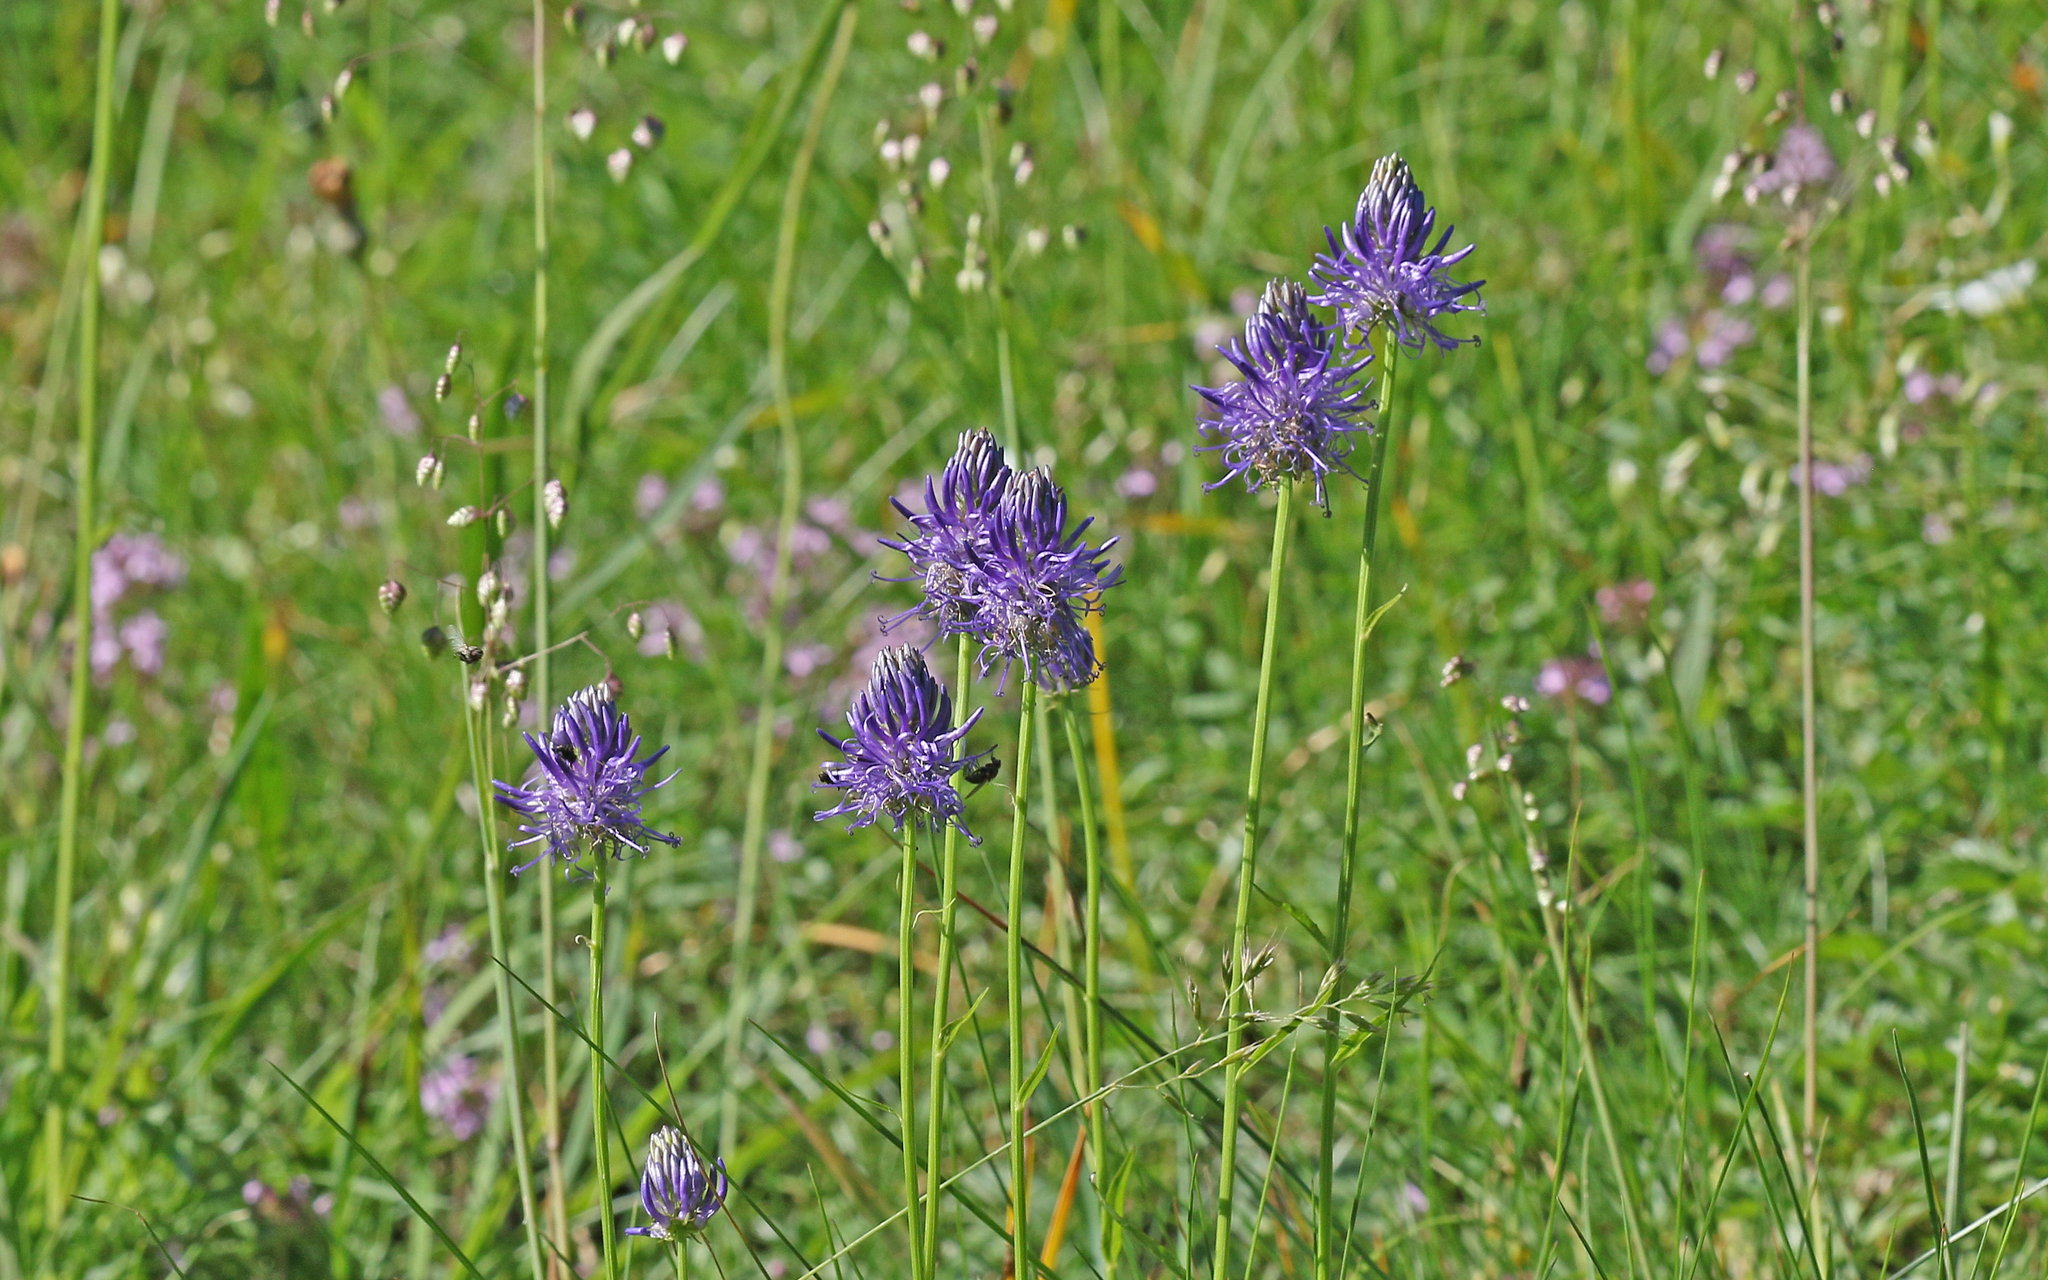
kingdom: Plantae
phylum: Tracheophyta
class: Magnoliopsida
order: Asterales
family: Campanulaceae
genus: Phyteuma
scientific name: Phyteuma betonicifolium
